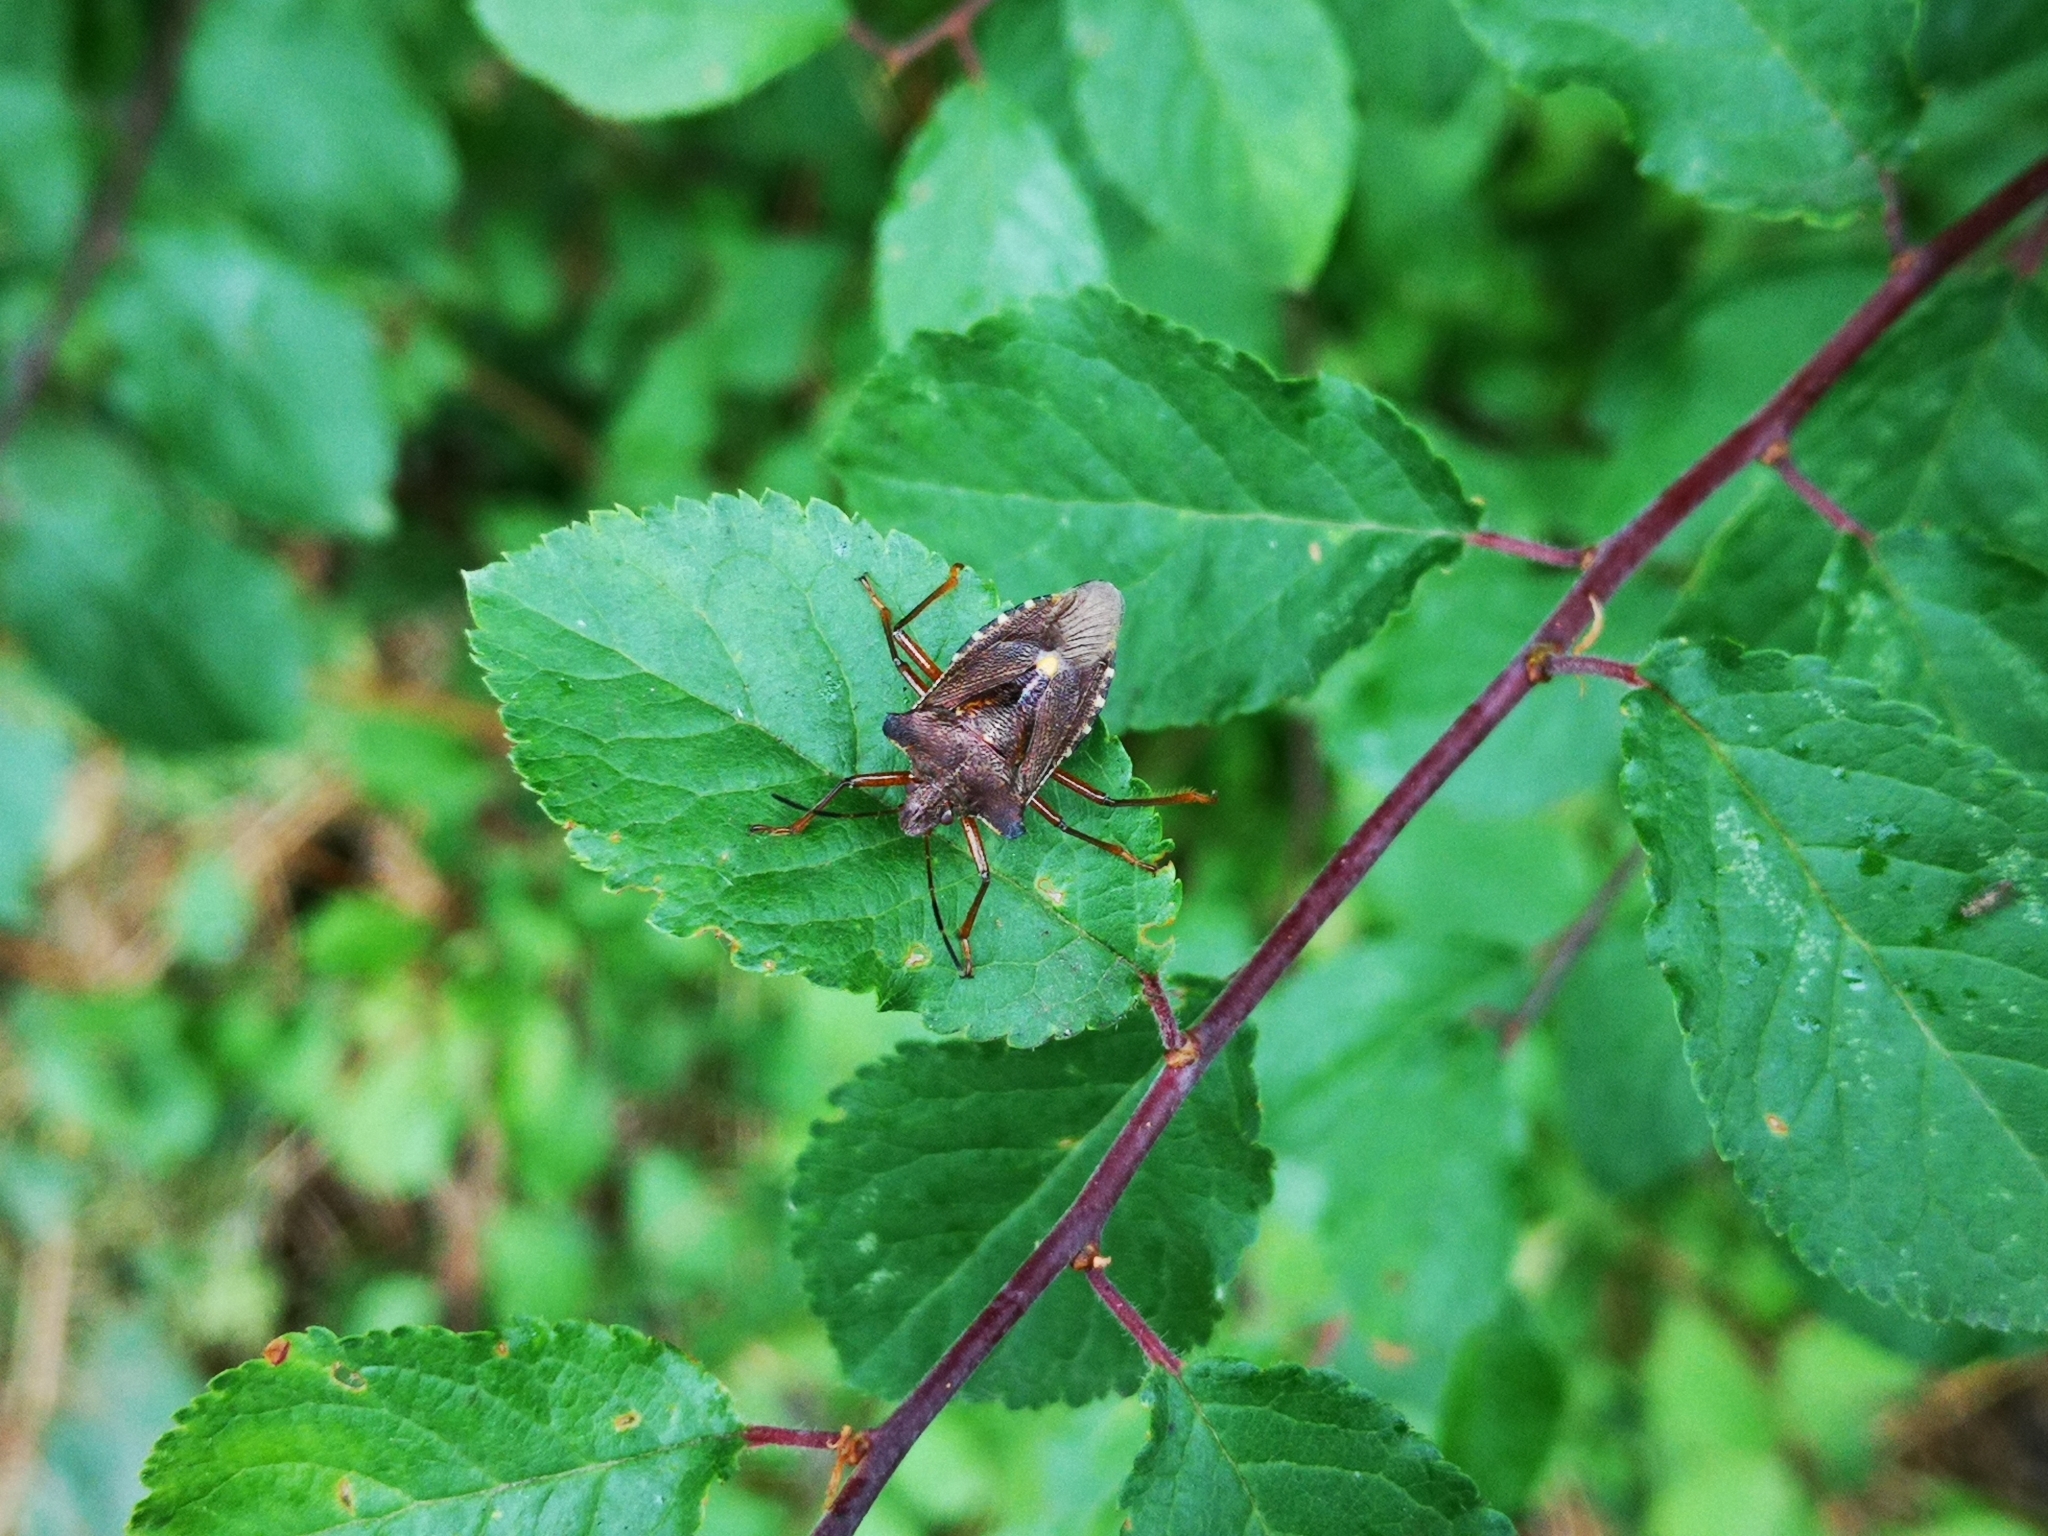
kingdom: Animalia
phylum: Arthropoda
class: Insecta
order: Hemiptera
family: Pentatomidae
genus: Pentatoma
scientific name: Pentatoma rufipes
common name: Forest bug
